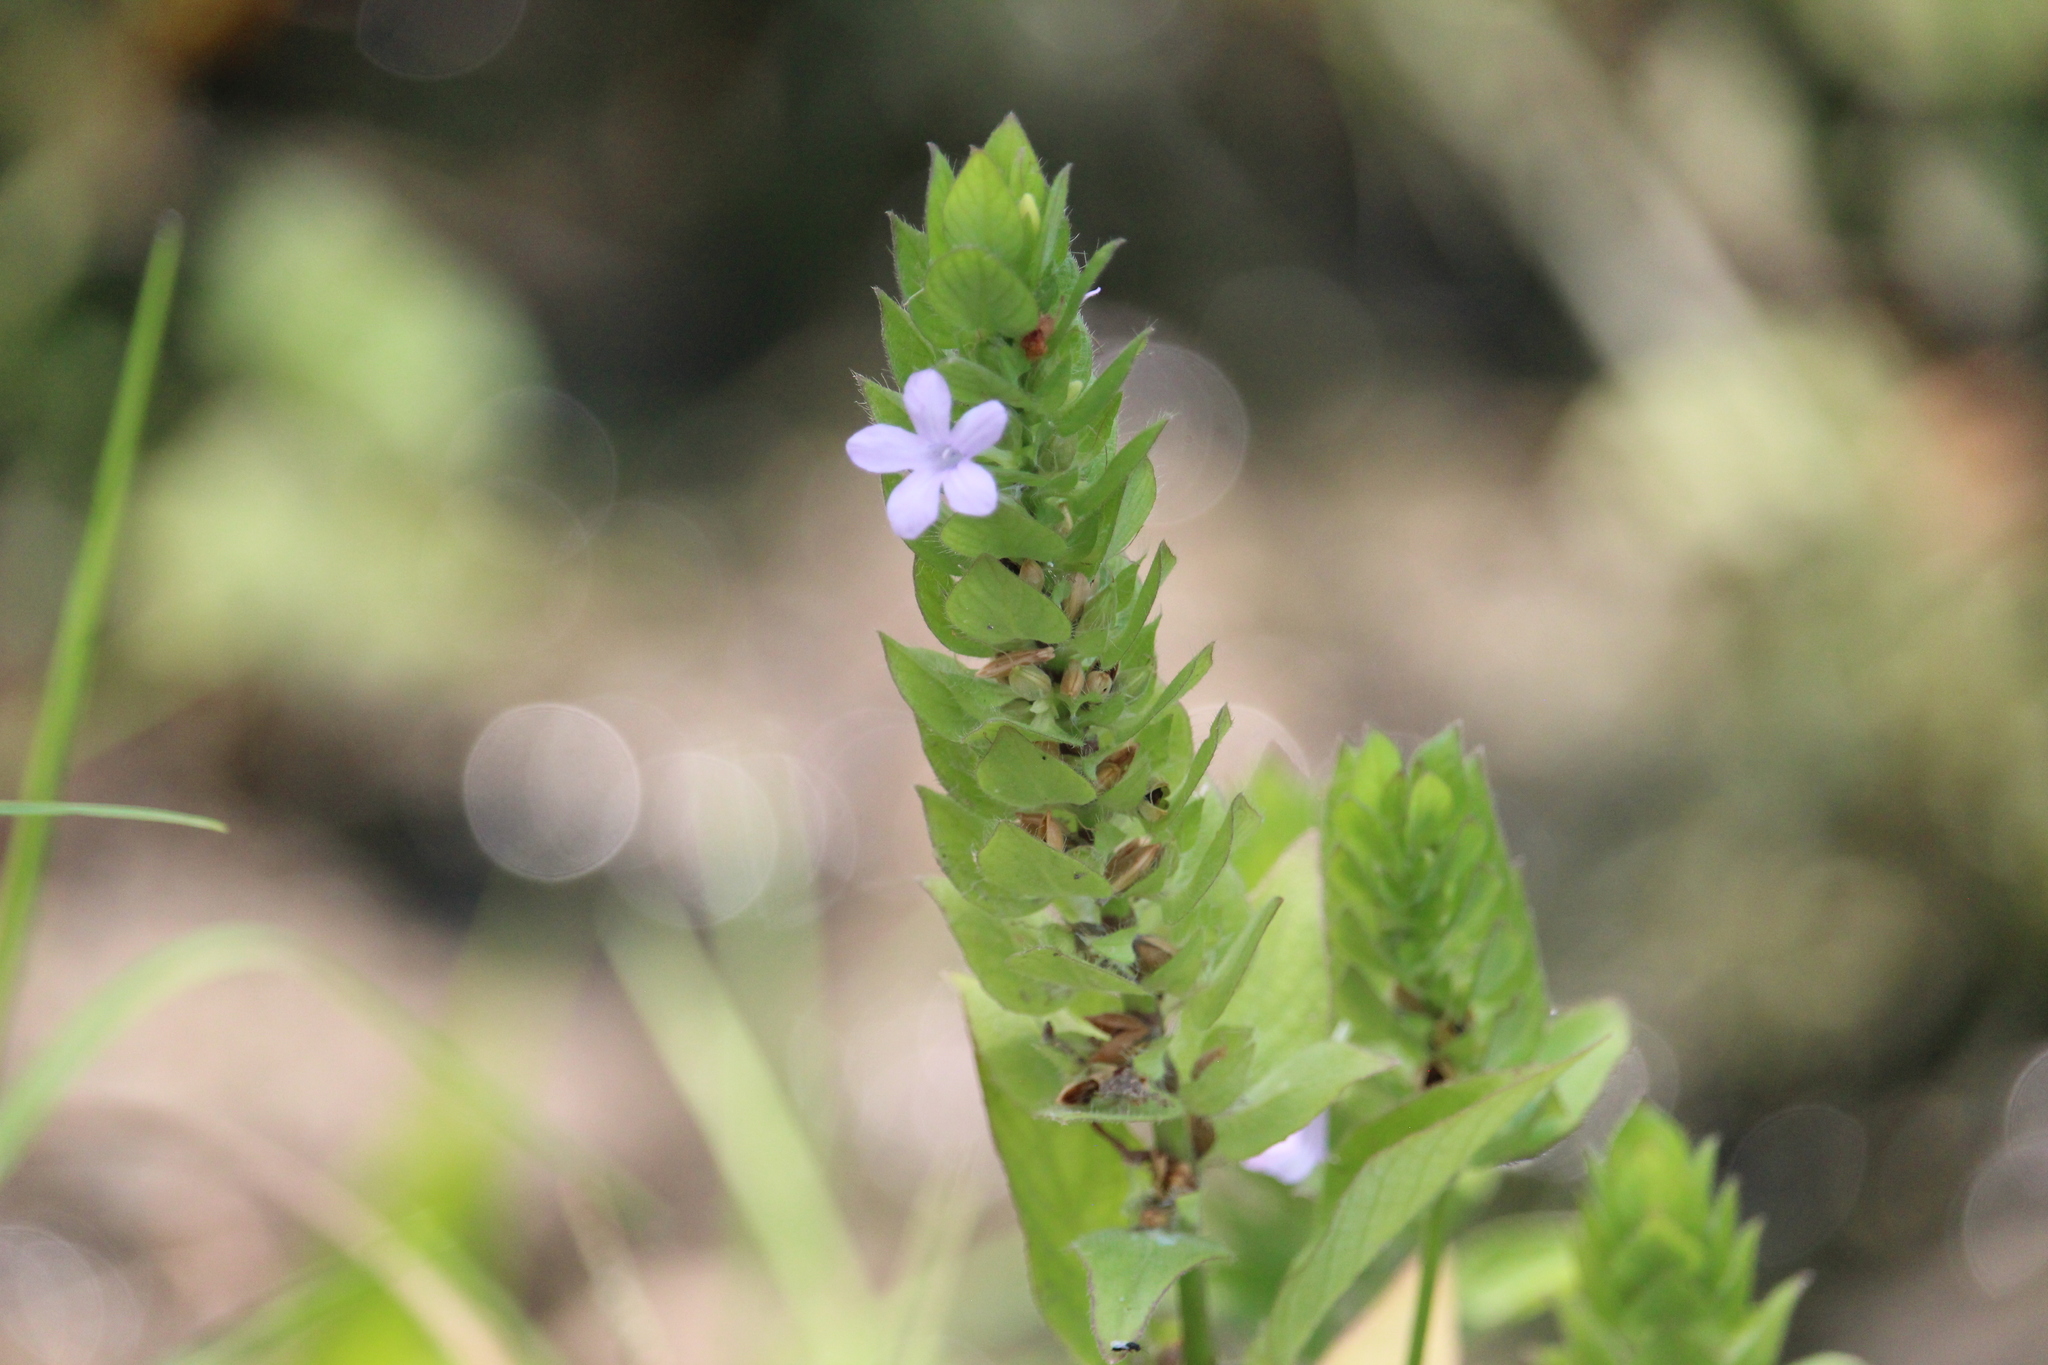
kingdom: Plantae
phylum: Tracheophyta
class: Magnoliopsida
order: Lamiales
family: Acanthaceae
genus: Ruellia
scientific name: Ruellia blechum
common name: Browne's blechum
